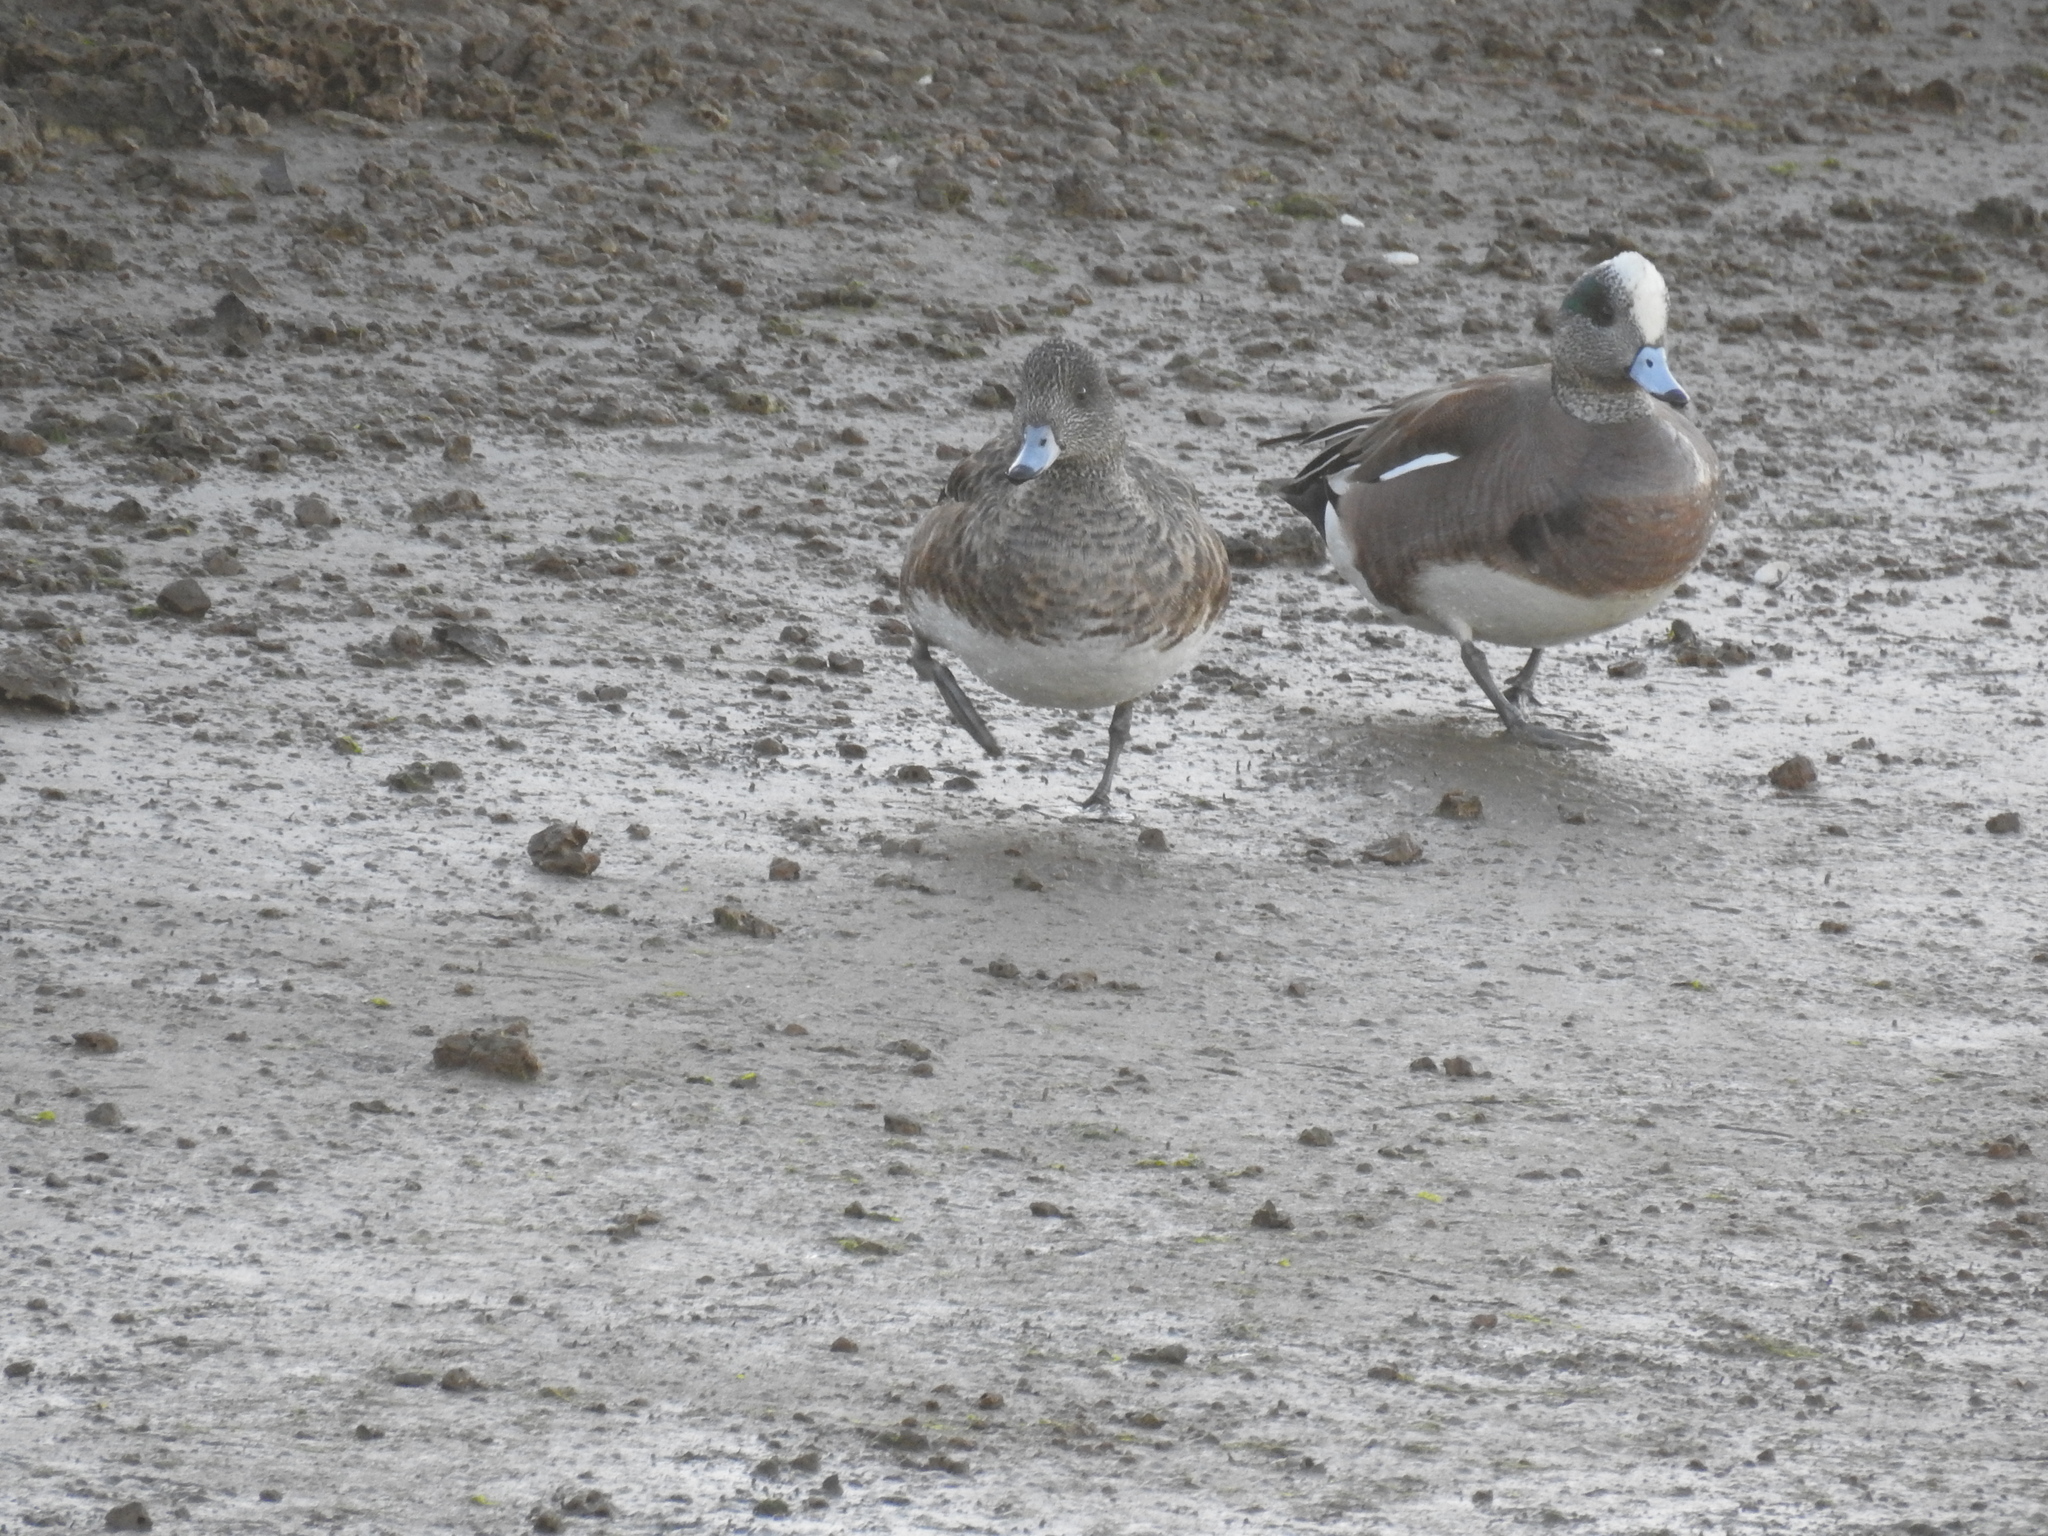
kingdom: Animalia
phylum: Chordata
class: Aves
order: Anseriformes
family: Anatidae
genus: Mareca
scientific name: Mareca americana
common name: American wigeon
